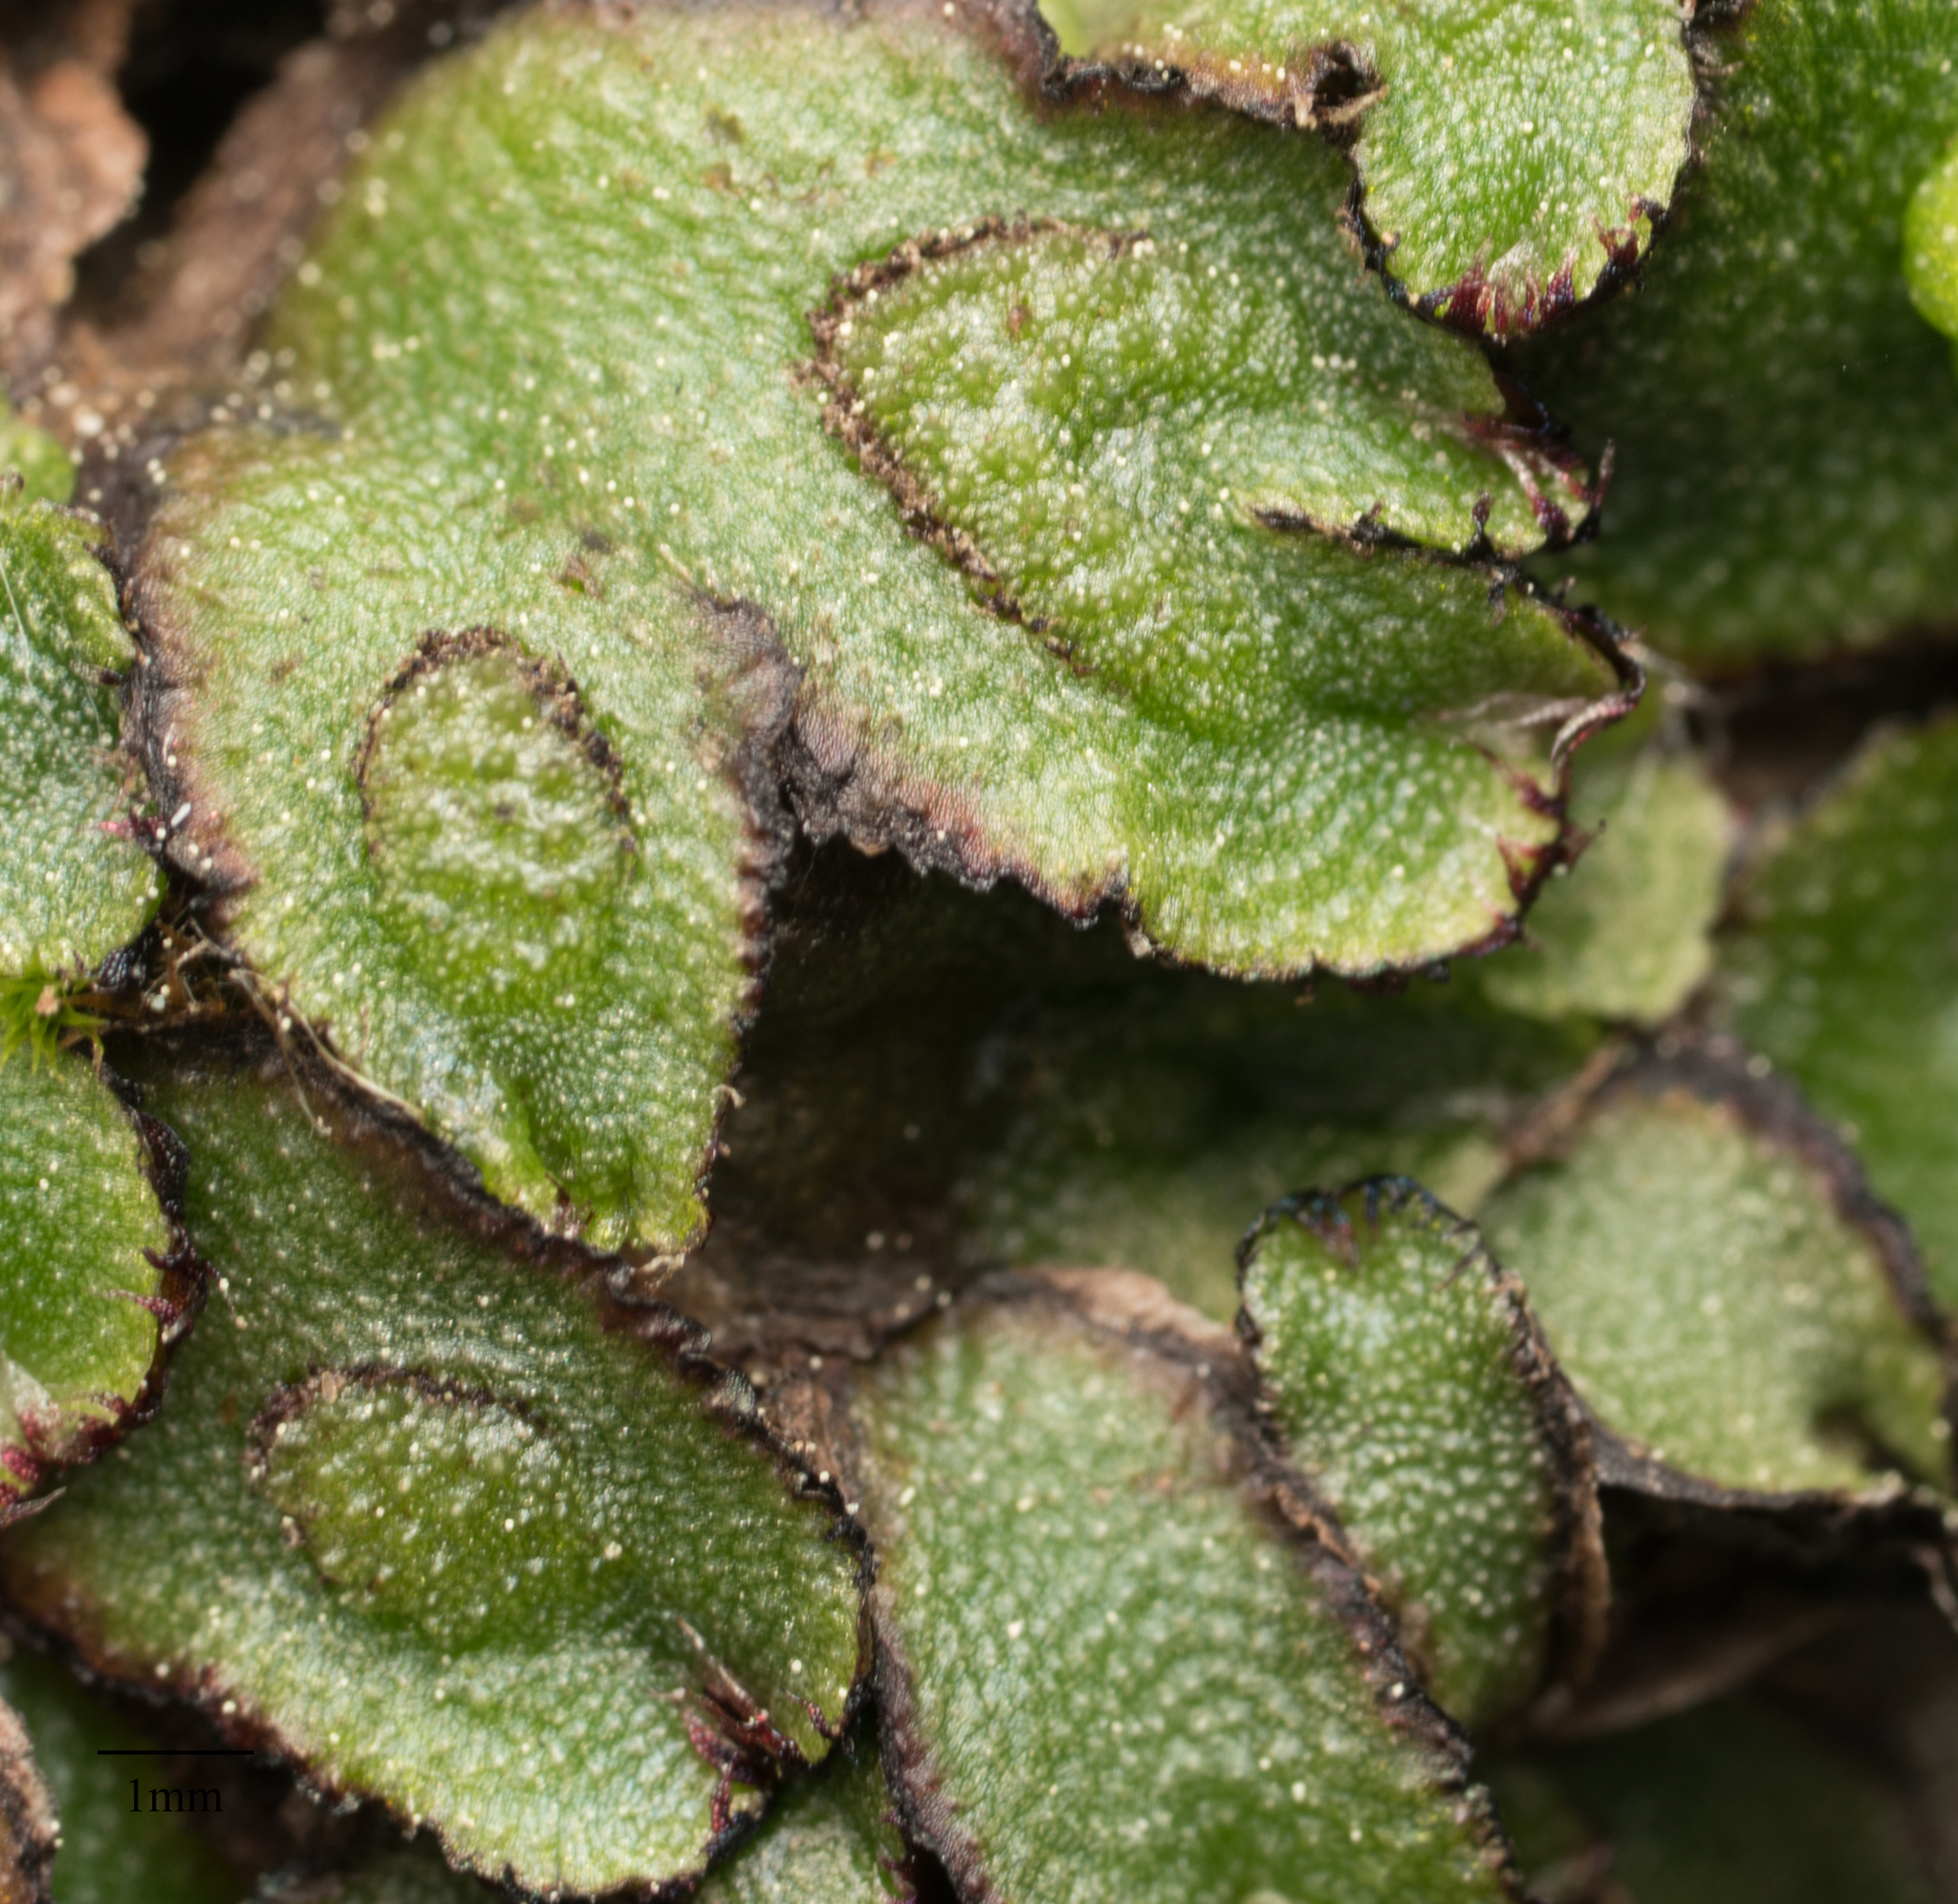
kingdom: Plantae
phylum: Marchantiophyta
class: Marchantiopsida
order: Marchantiales
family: Aytoniaceae
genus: Asterella
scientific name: Asterella californica
